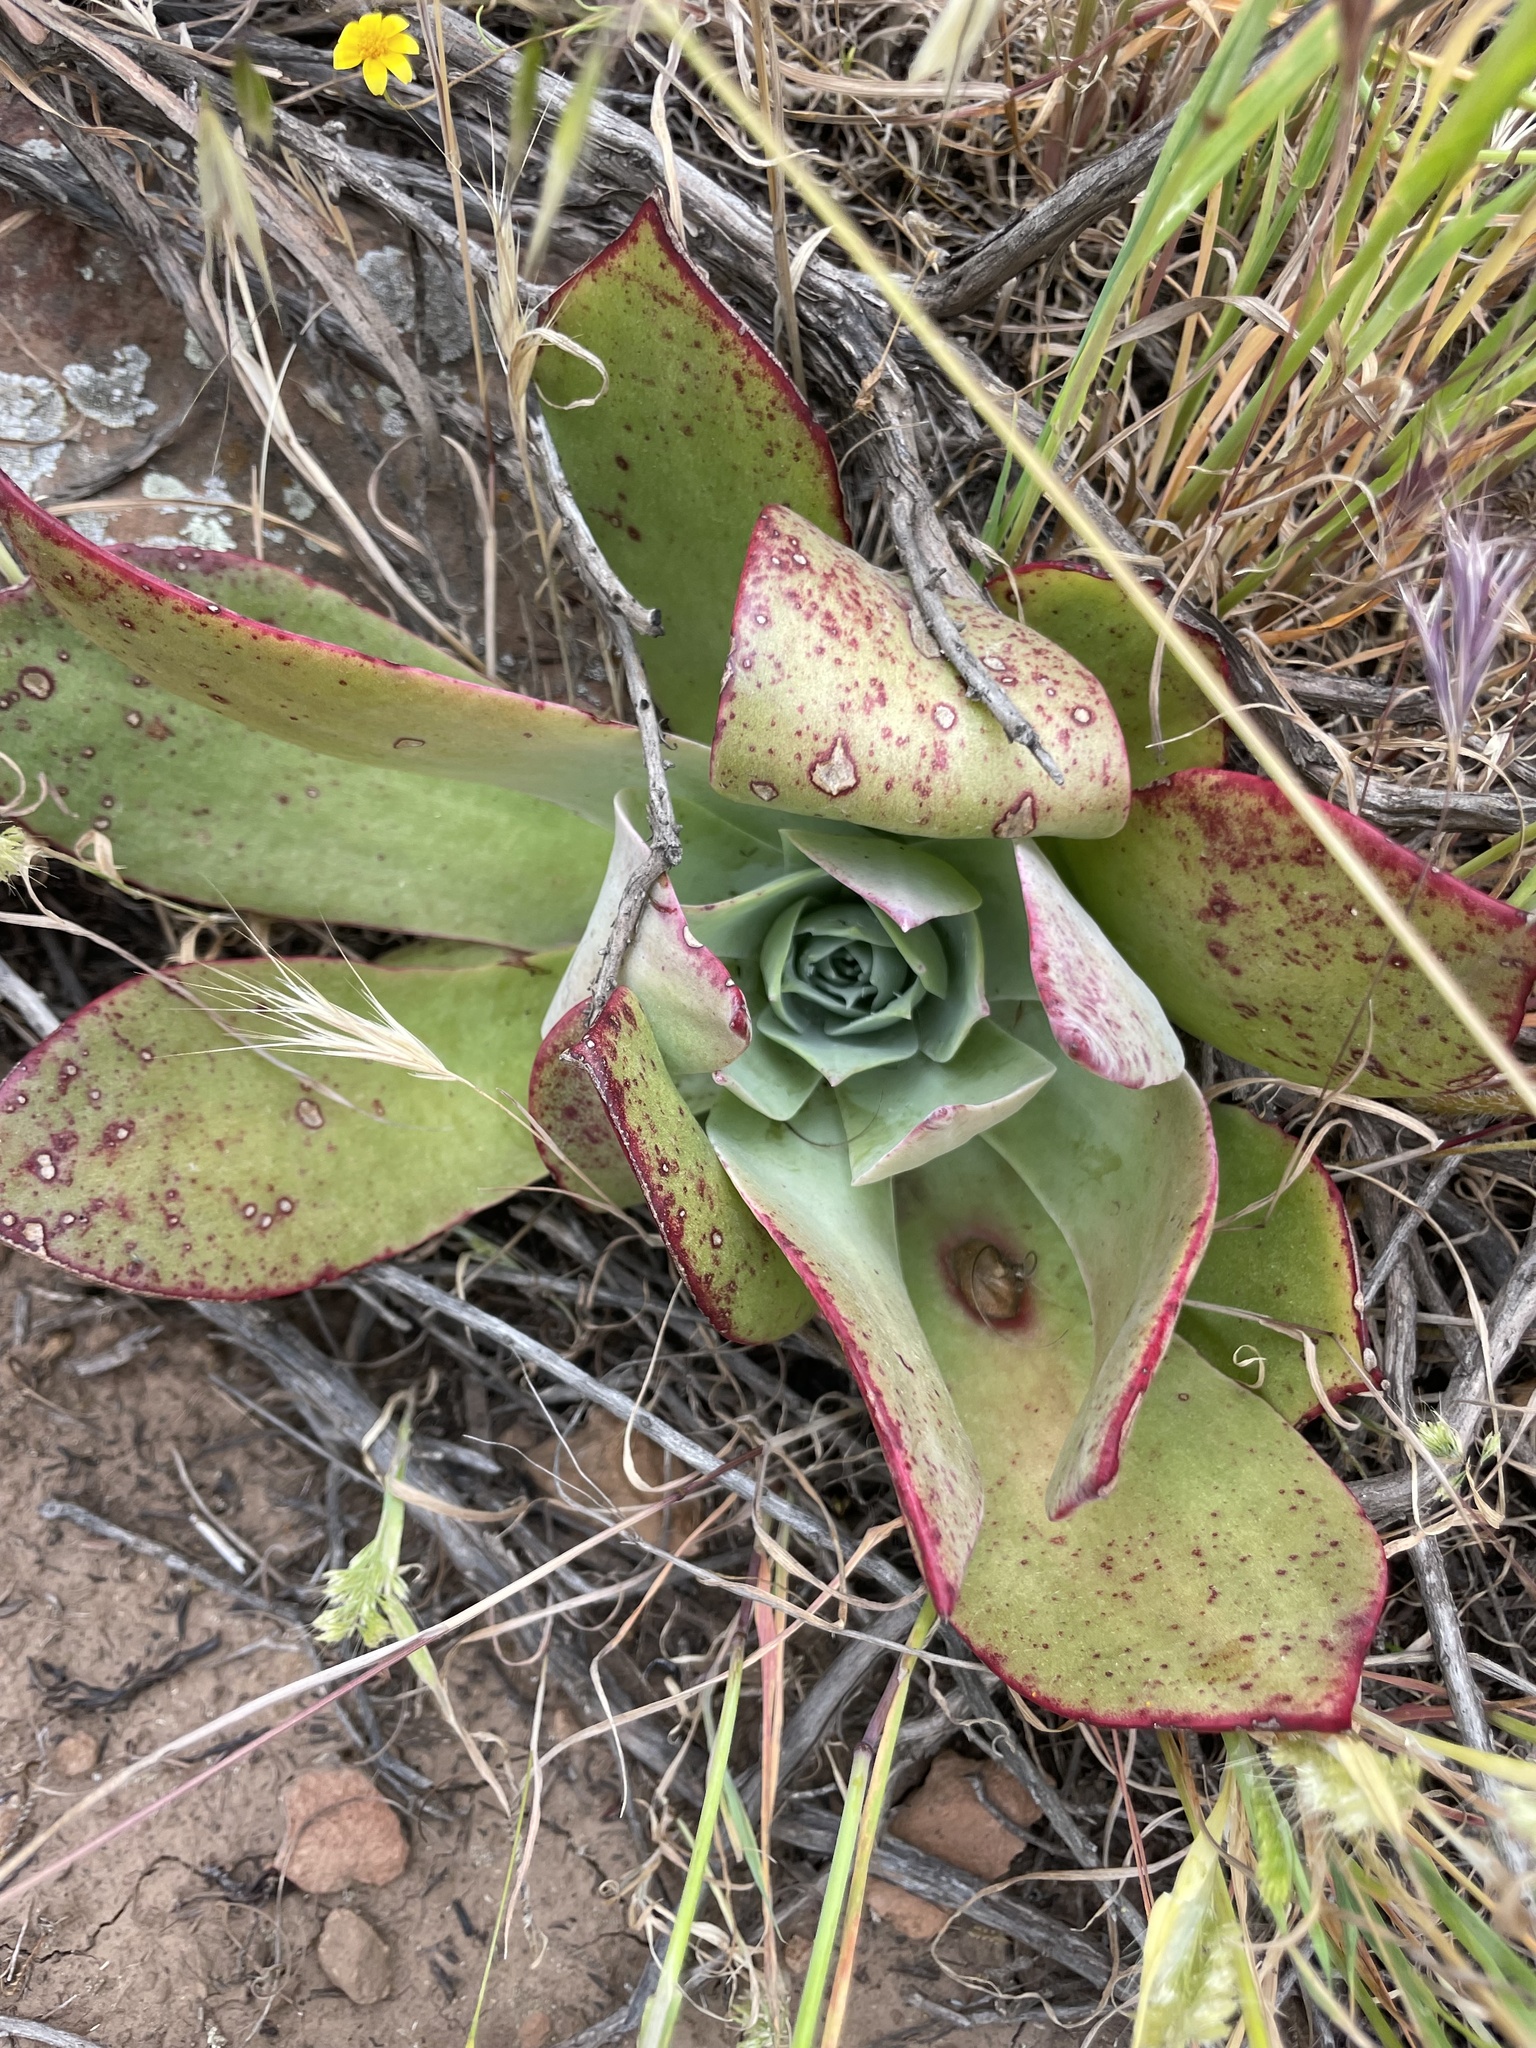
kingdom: Plantae
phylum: Tracheophyta
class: Magnoliopsida
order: Saxifragales
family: Crassulaceae
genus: Dudleya
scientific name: Dudleya pulverulenta
